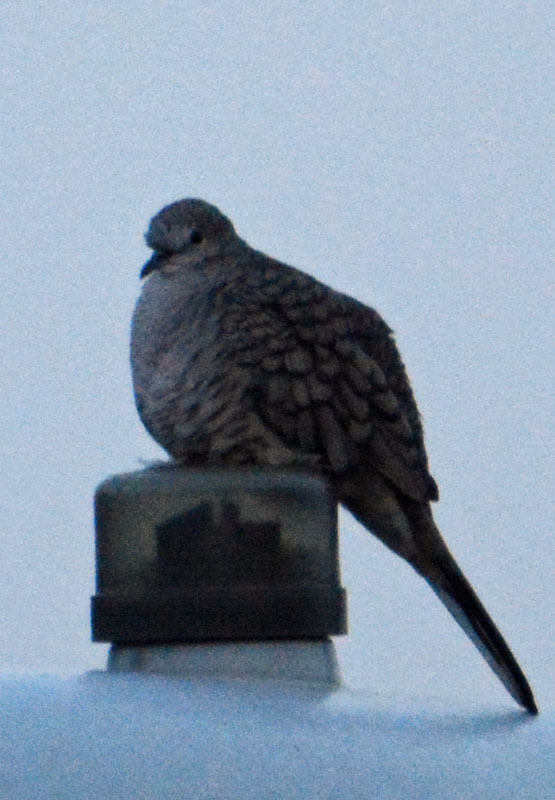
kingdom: Animalia
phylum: Chordata
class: Aves
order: Columbiformes
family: Columbidae
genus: Columbina
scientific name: Columbina inca
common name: Inca dove
